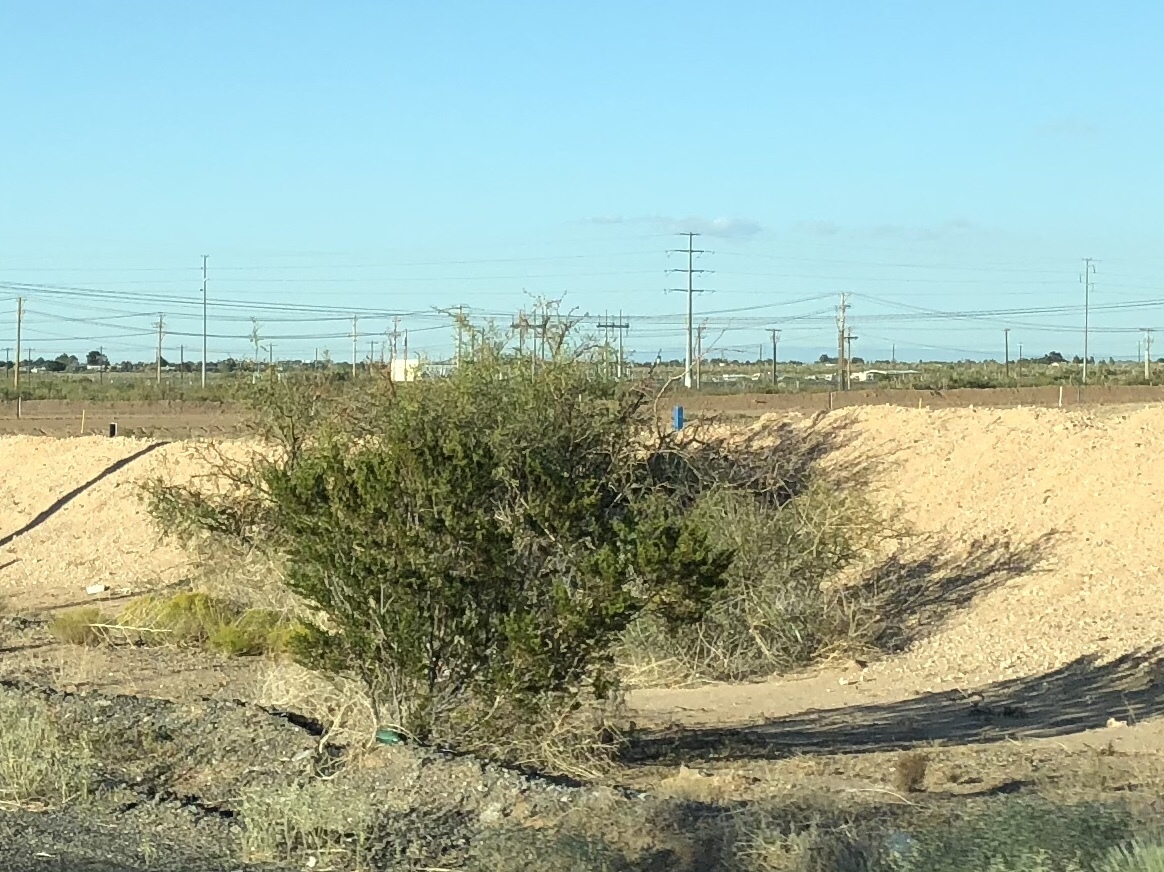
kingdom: Plantae
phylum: Tracheophyta
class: Magnoliopsida
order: Zygophyllales
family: Zygophyllaceae
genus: Larrea
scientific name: Larrea tridentata
